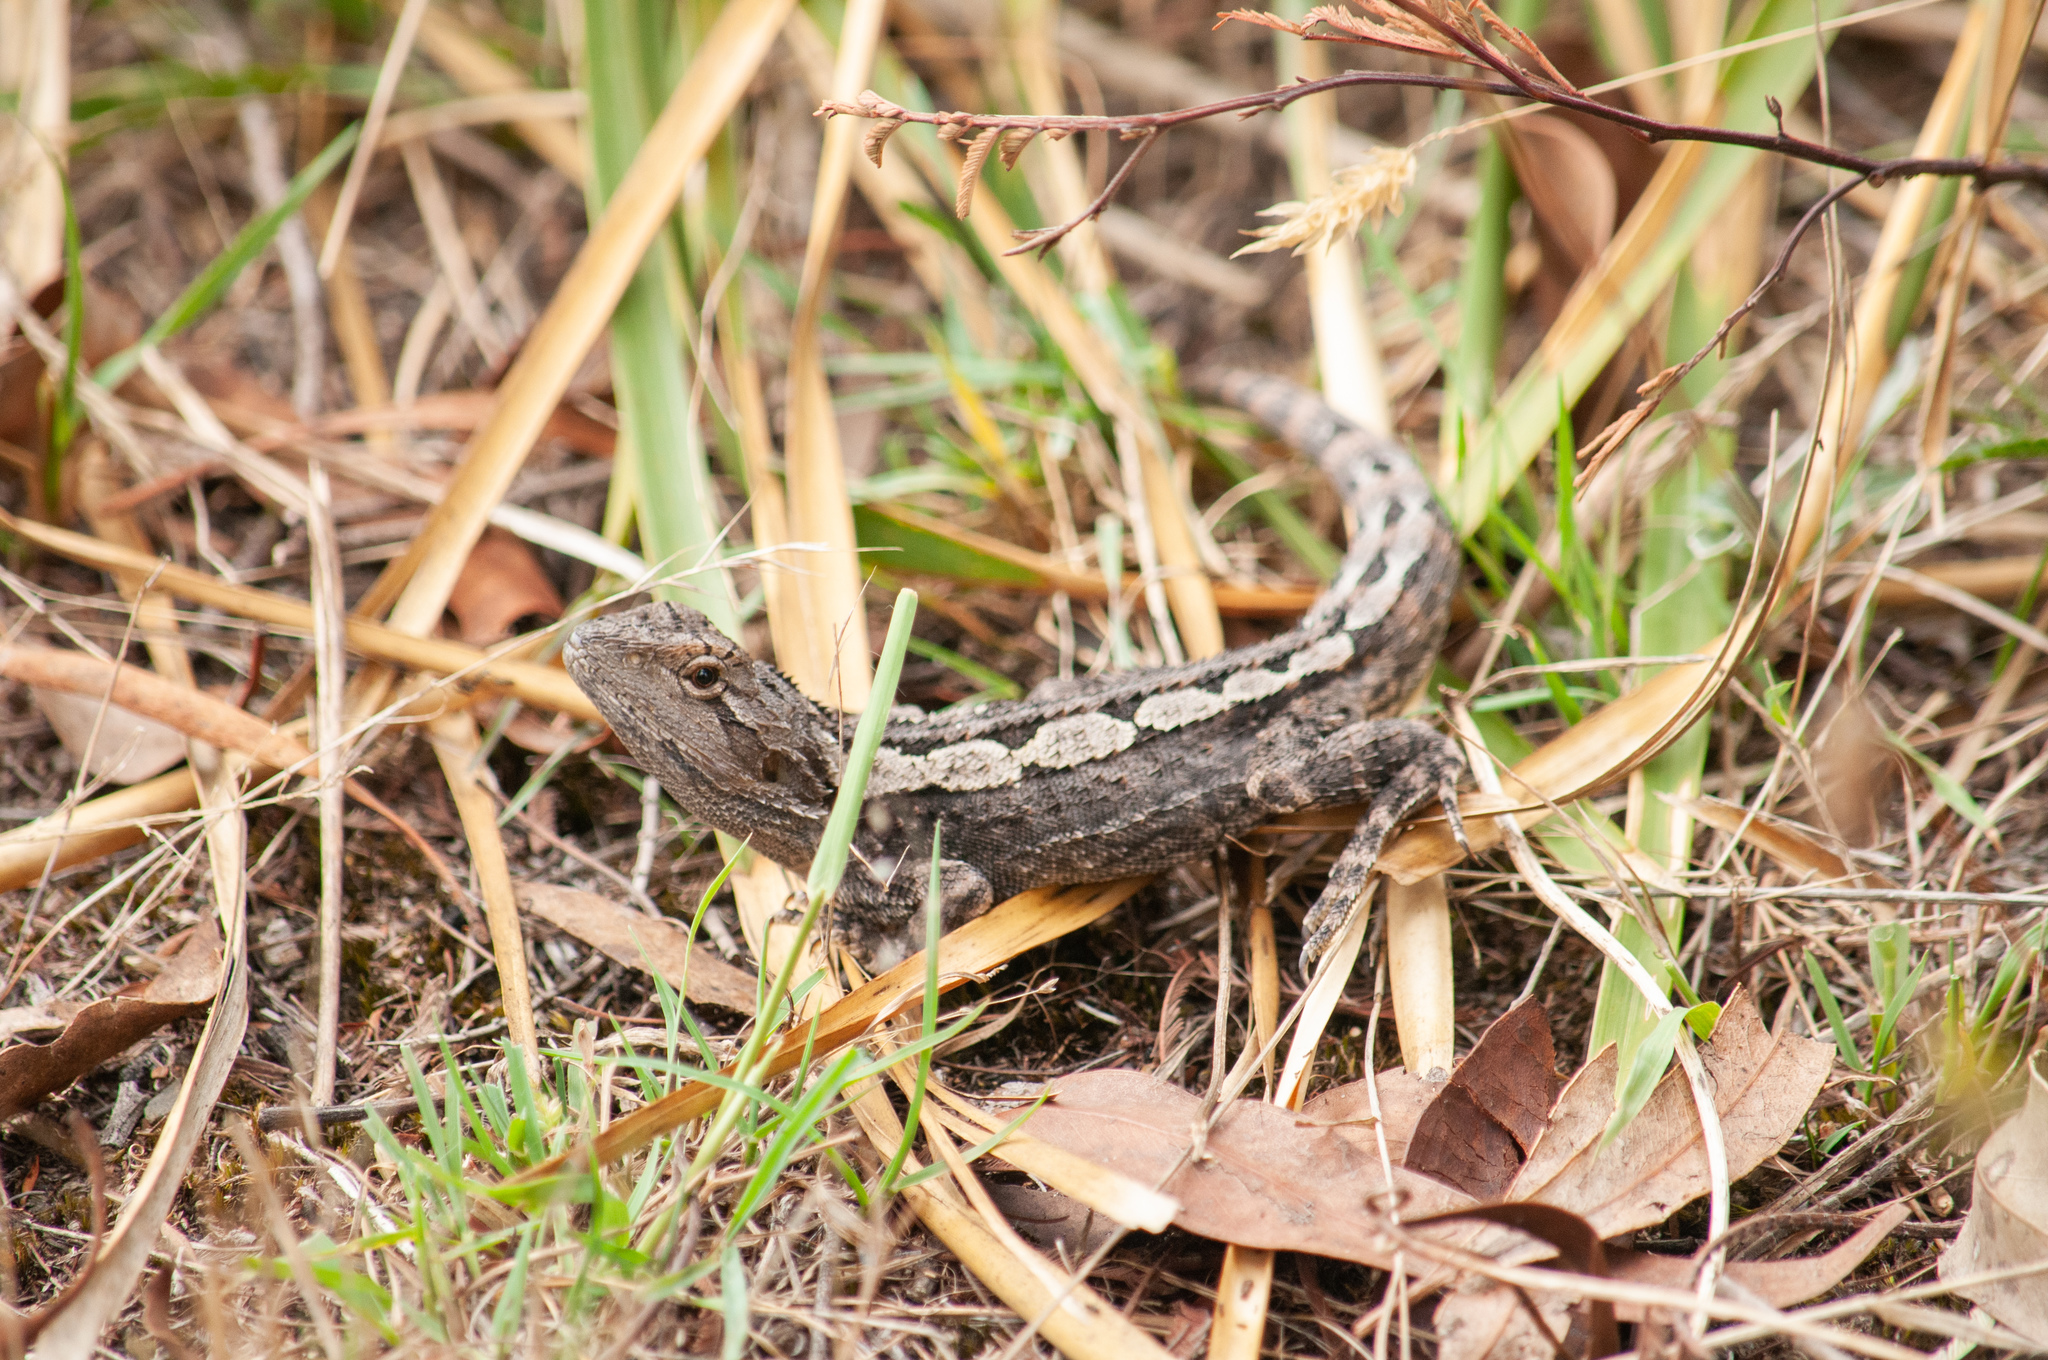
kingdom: Animalia
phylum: Chordata
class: Squamata
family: Agamidae
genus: Amphibolurus
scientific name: Amphibolurus muricatus
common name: Jacky lizard
